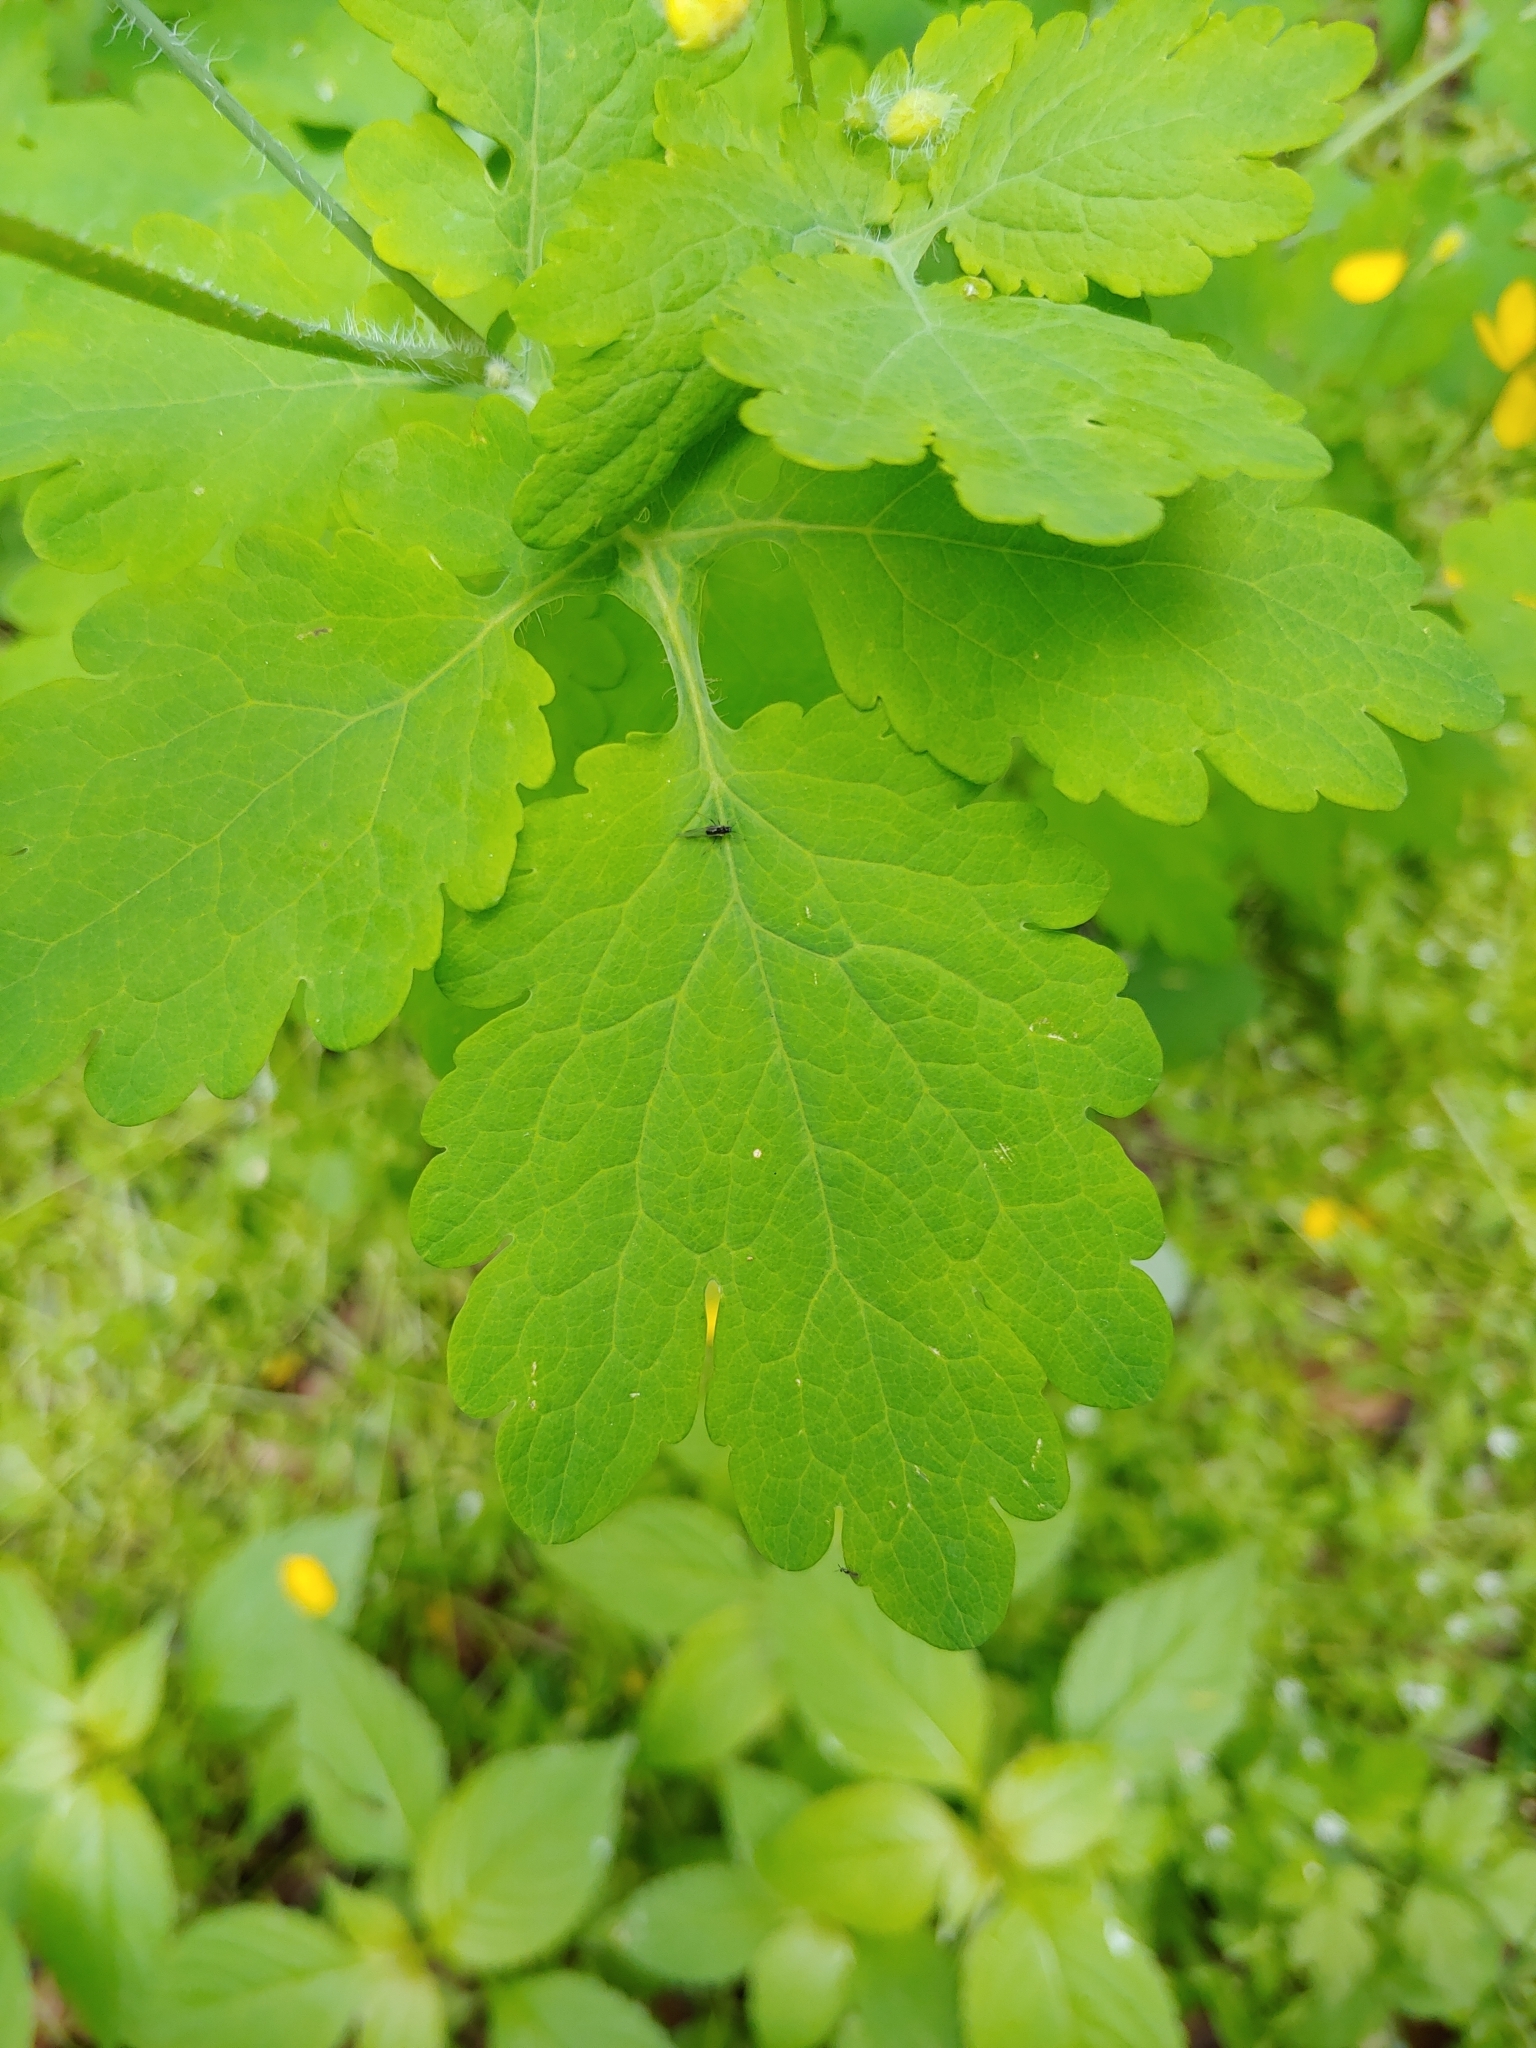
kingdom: Plantae
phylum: Tracheophyta
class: Magnoliopsida
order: Ranunculales
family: Papaveraceae
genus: Chelidonium
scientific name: Chelidonium majus
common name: Greater celandine
